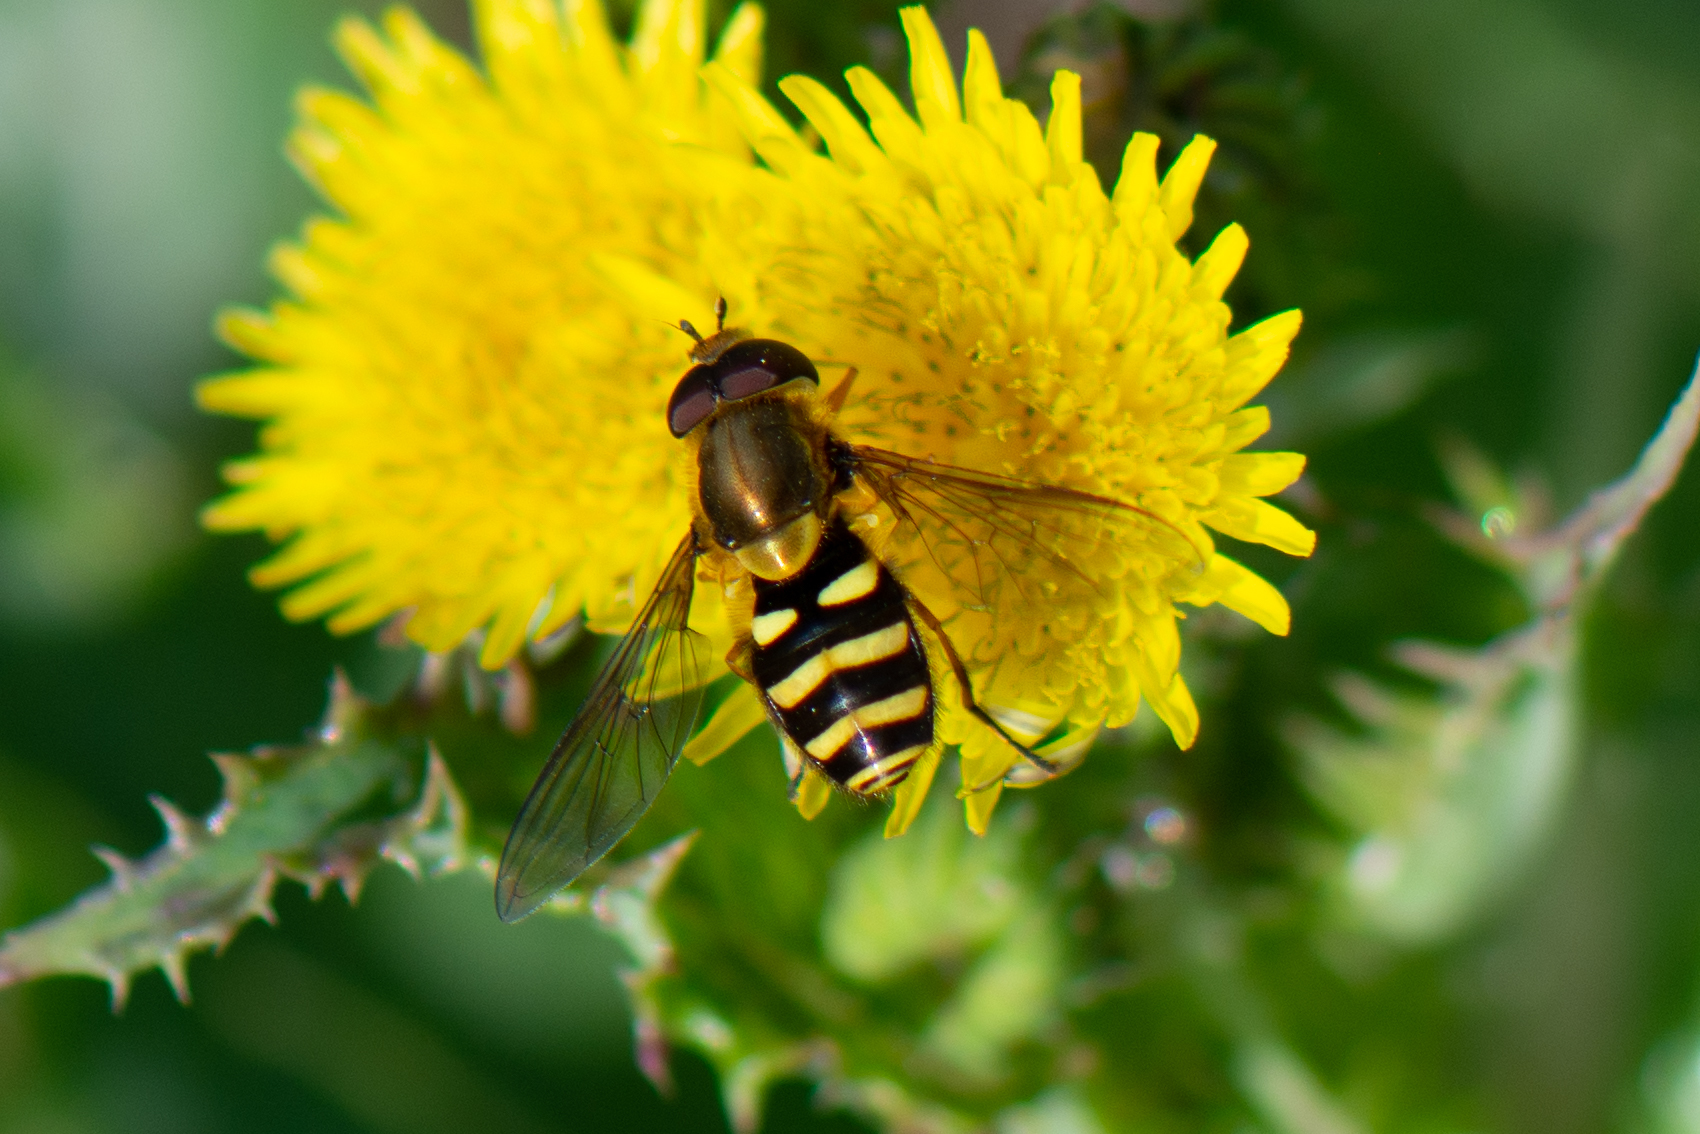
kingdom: Animalia
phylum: Arthropoda
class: Insecta
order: Diptera
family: Syrphidae
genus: Syrphus
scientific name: Syrphus opinator
